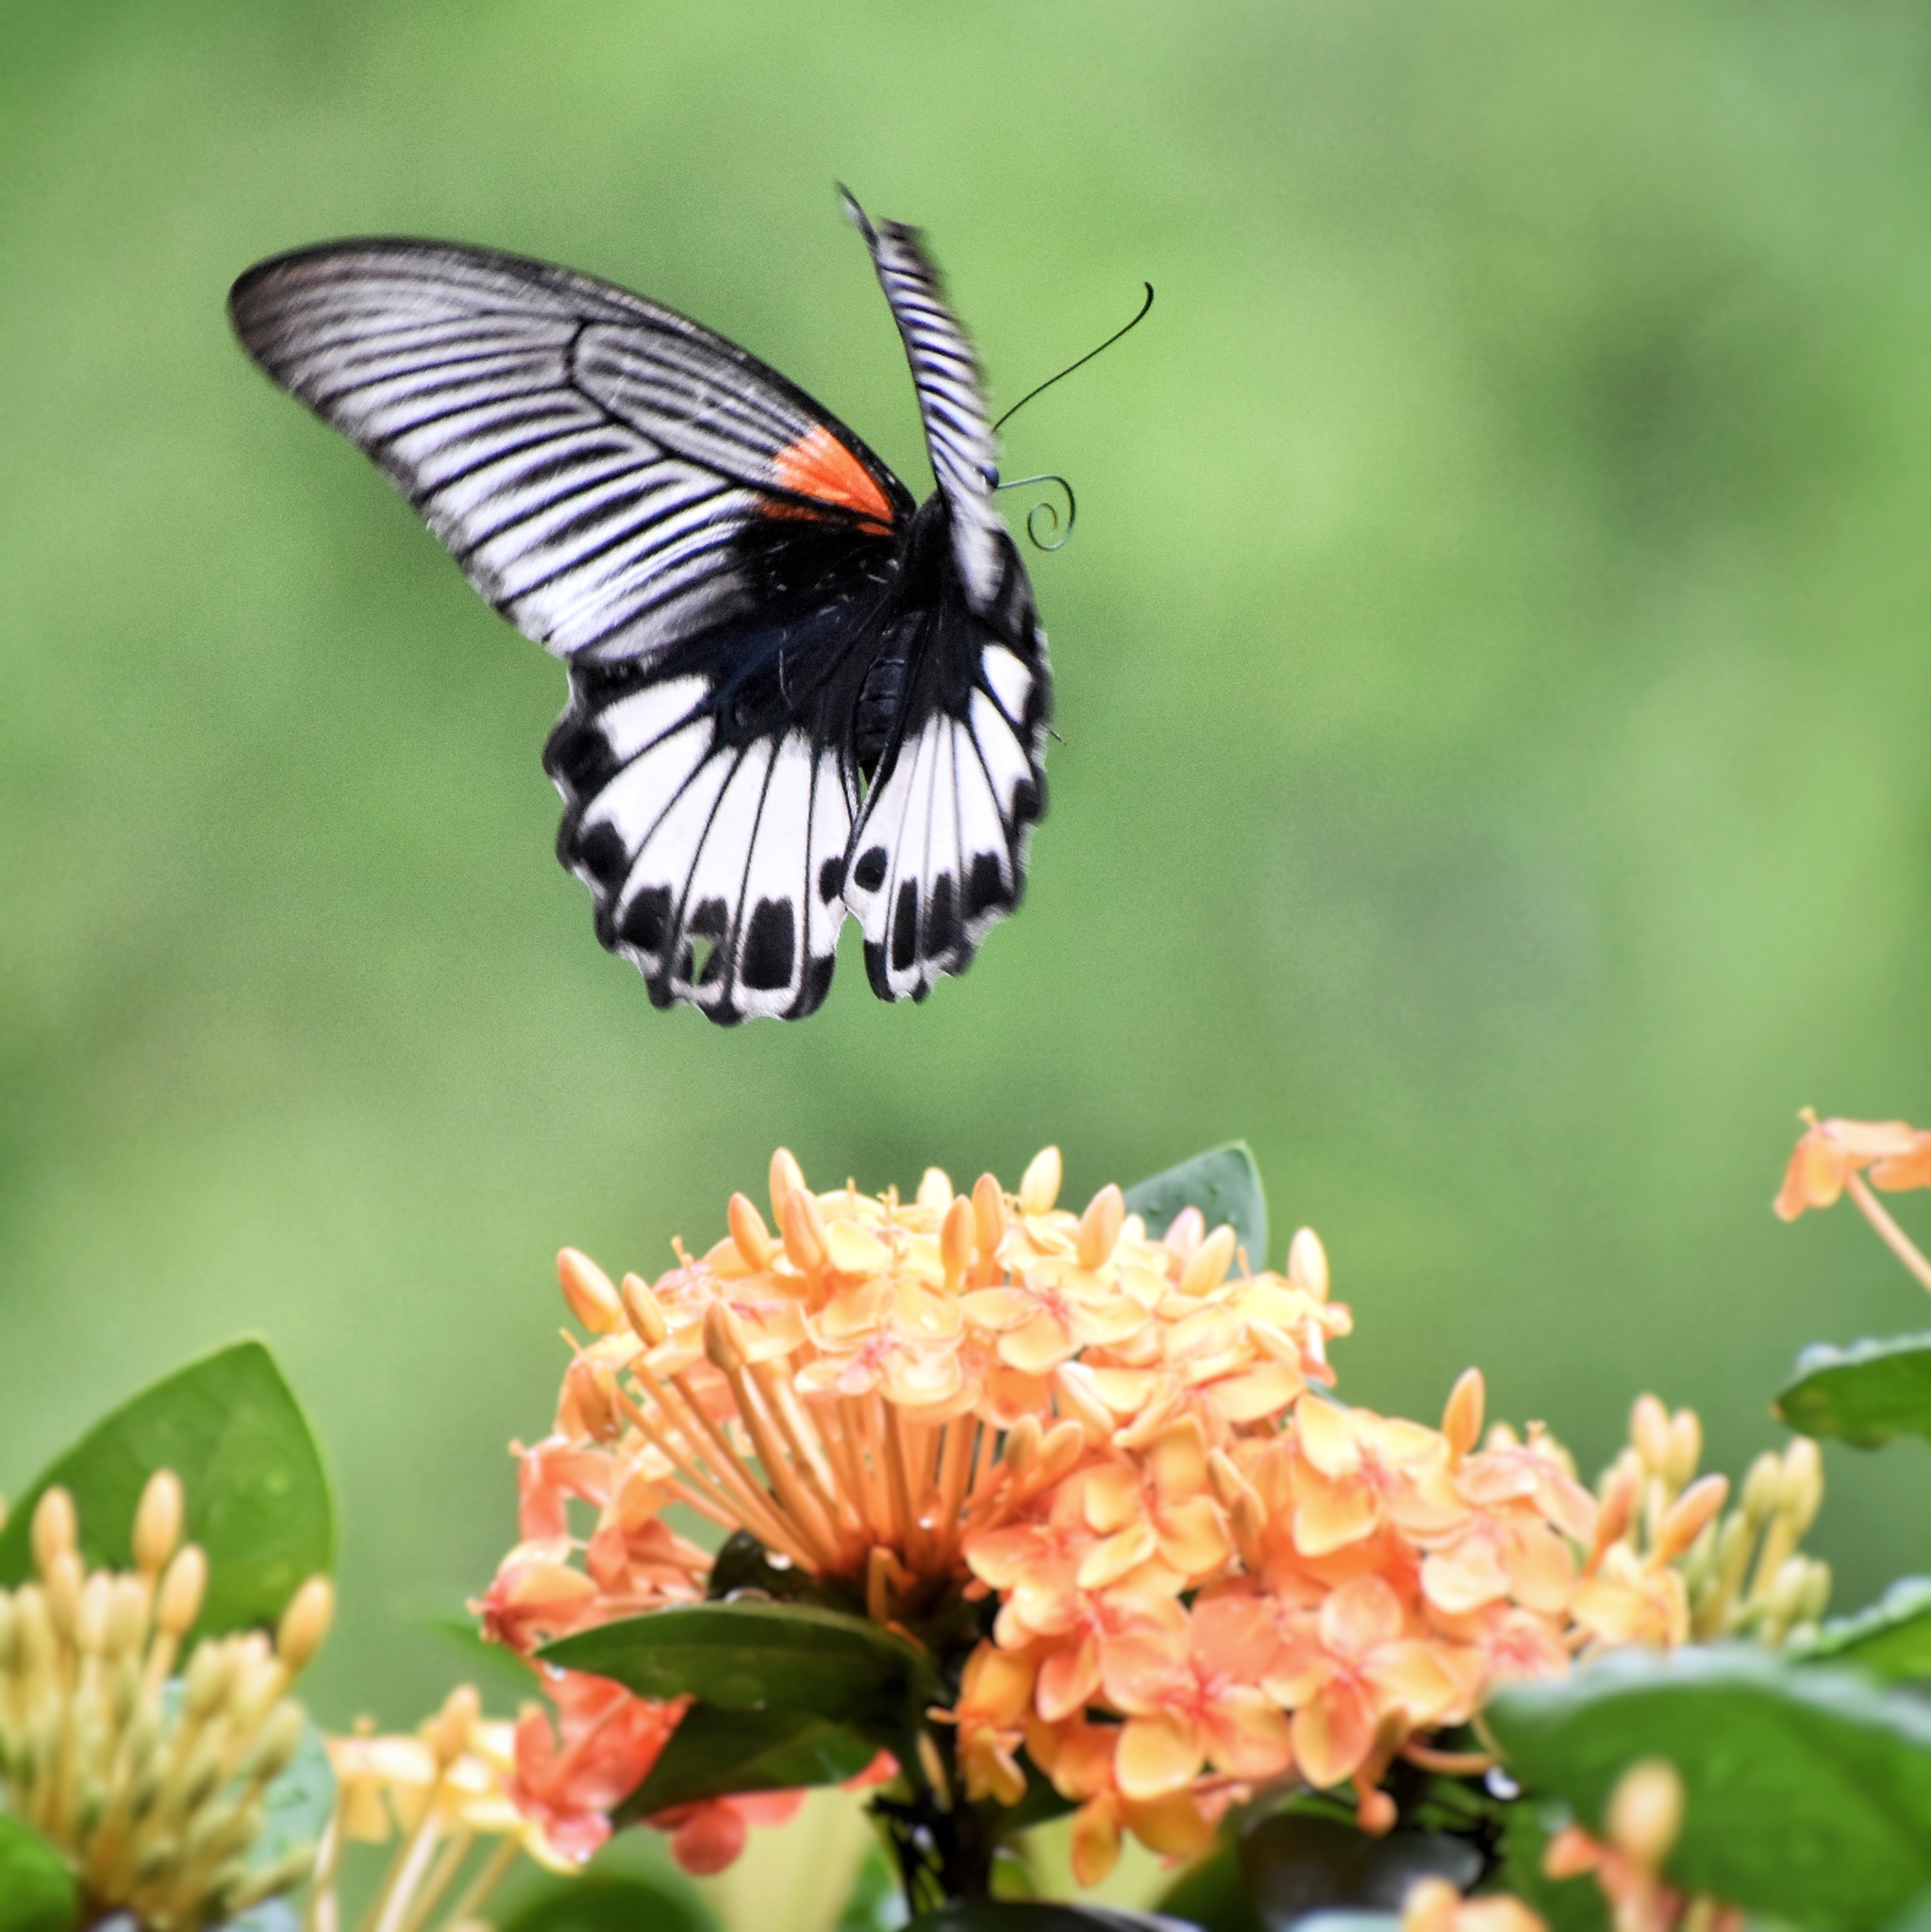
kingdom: Animalia
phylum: Arthropoda
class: Insecta
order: Lepidoptera
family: Papilionidae
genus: Papilio
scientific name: Papilio memnon
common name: Great mormon
